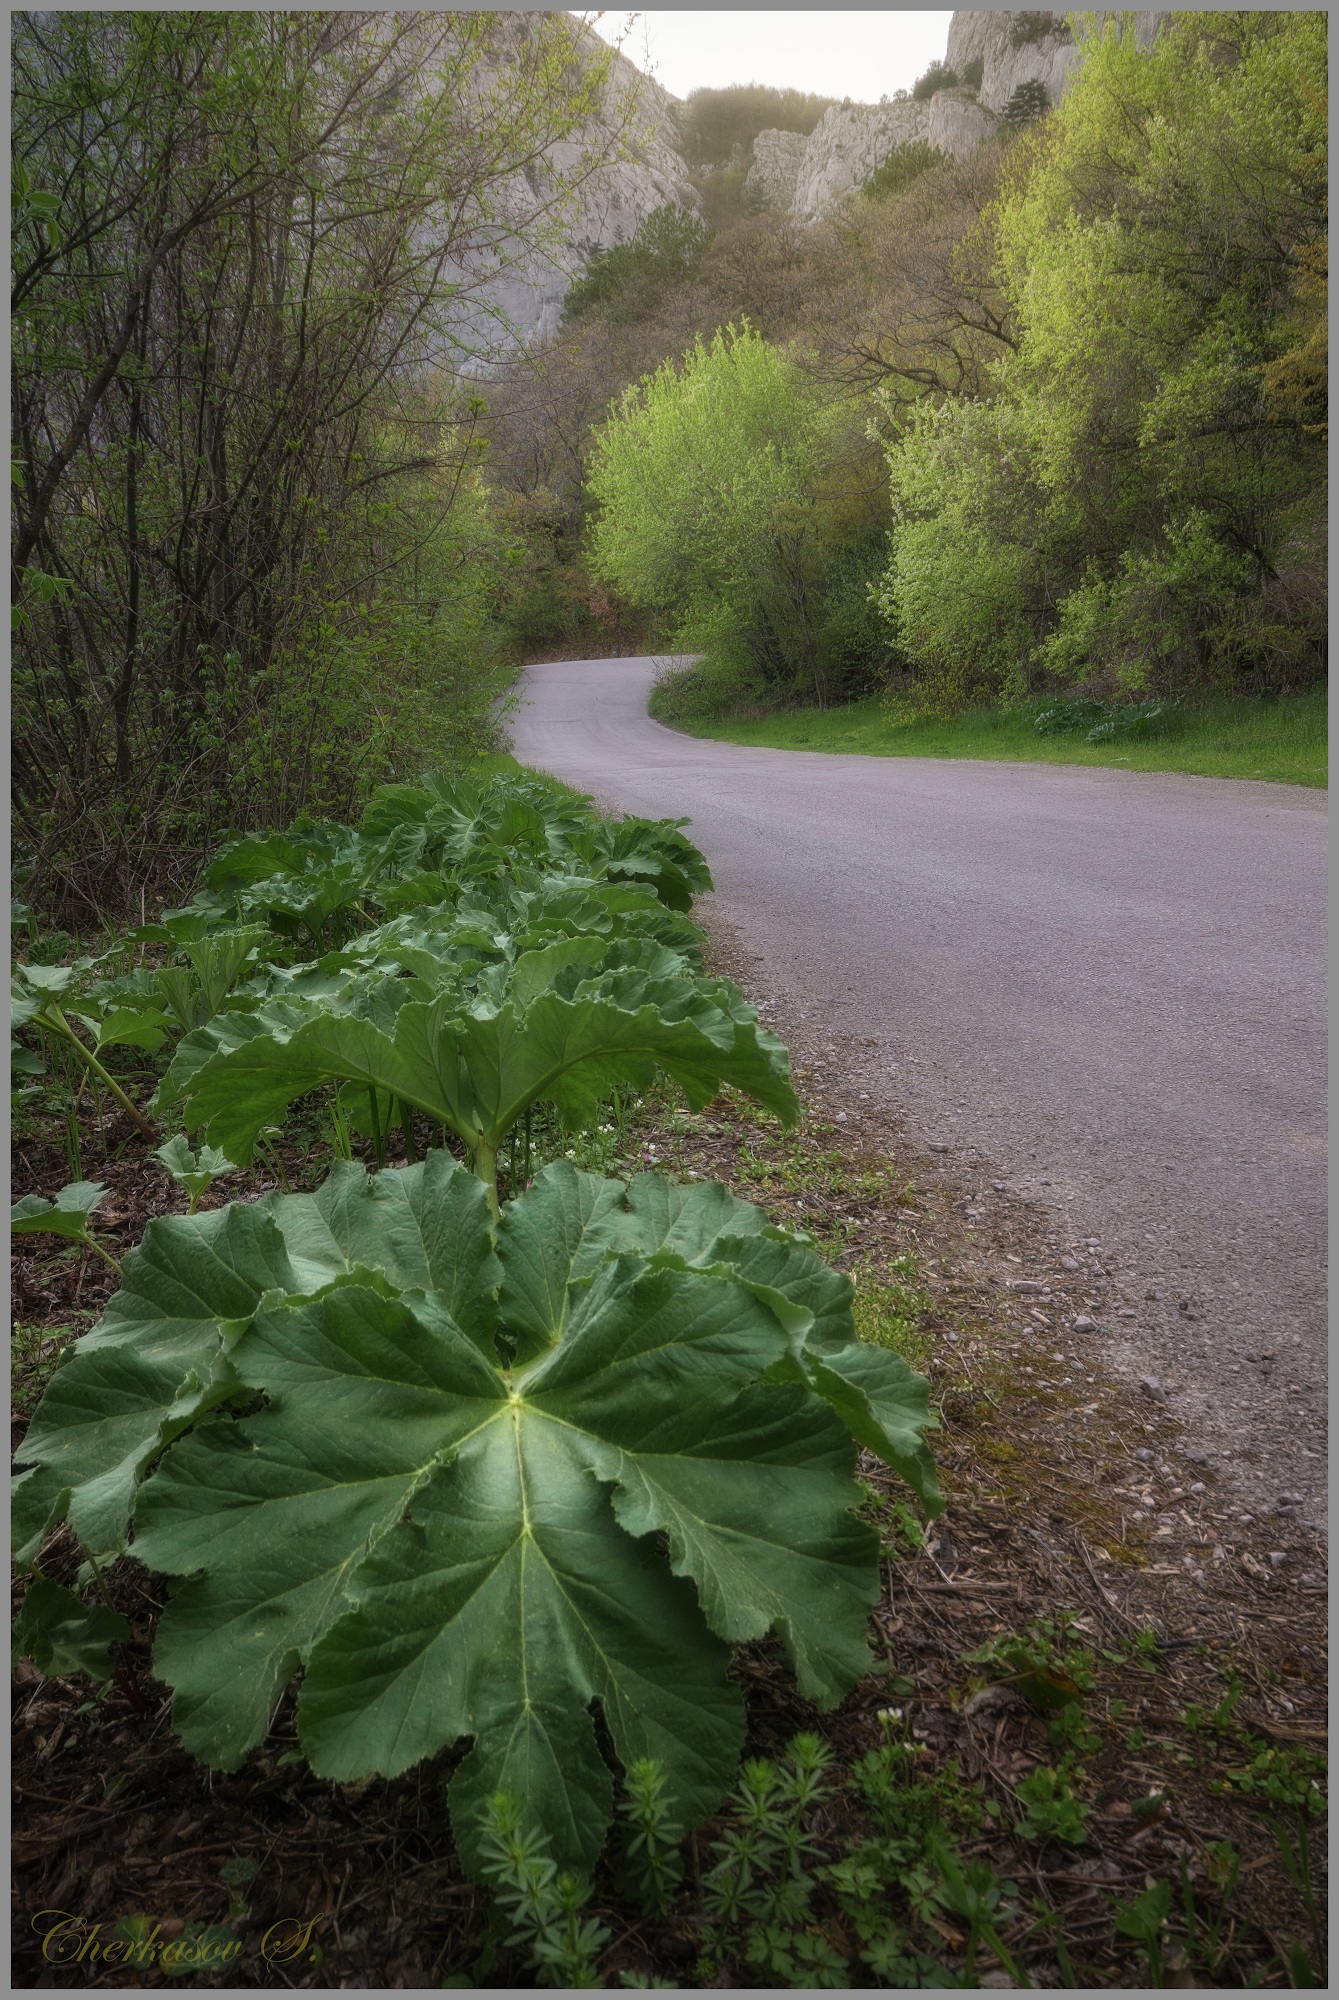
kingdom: Plantae
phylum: Tracheophyta
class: Magnoliopsida
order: Apiales
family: Apiaceae
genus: Heracleum
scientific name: Heracleum stevenii
